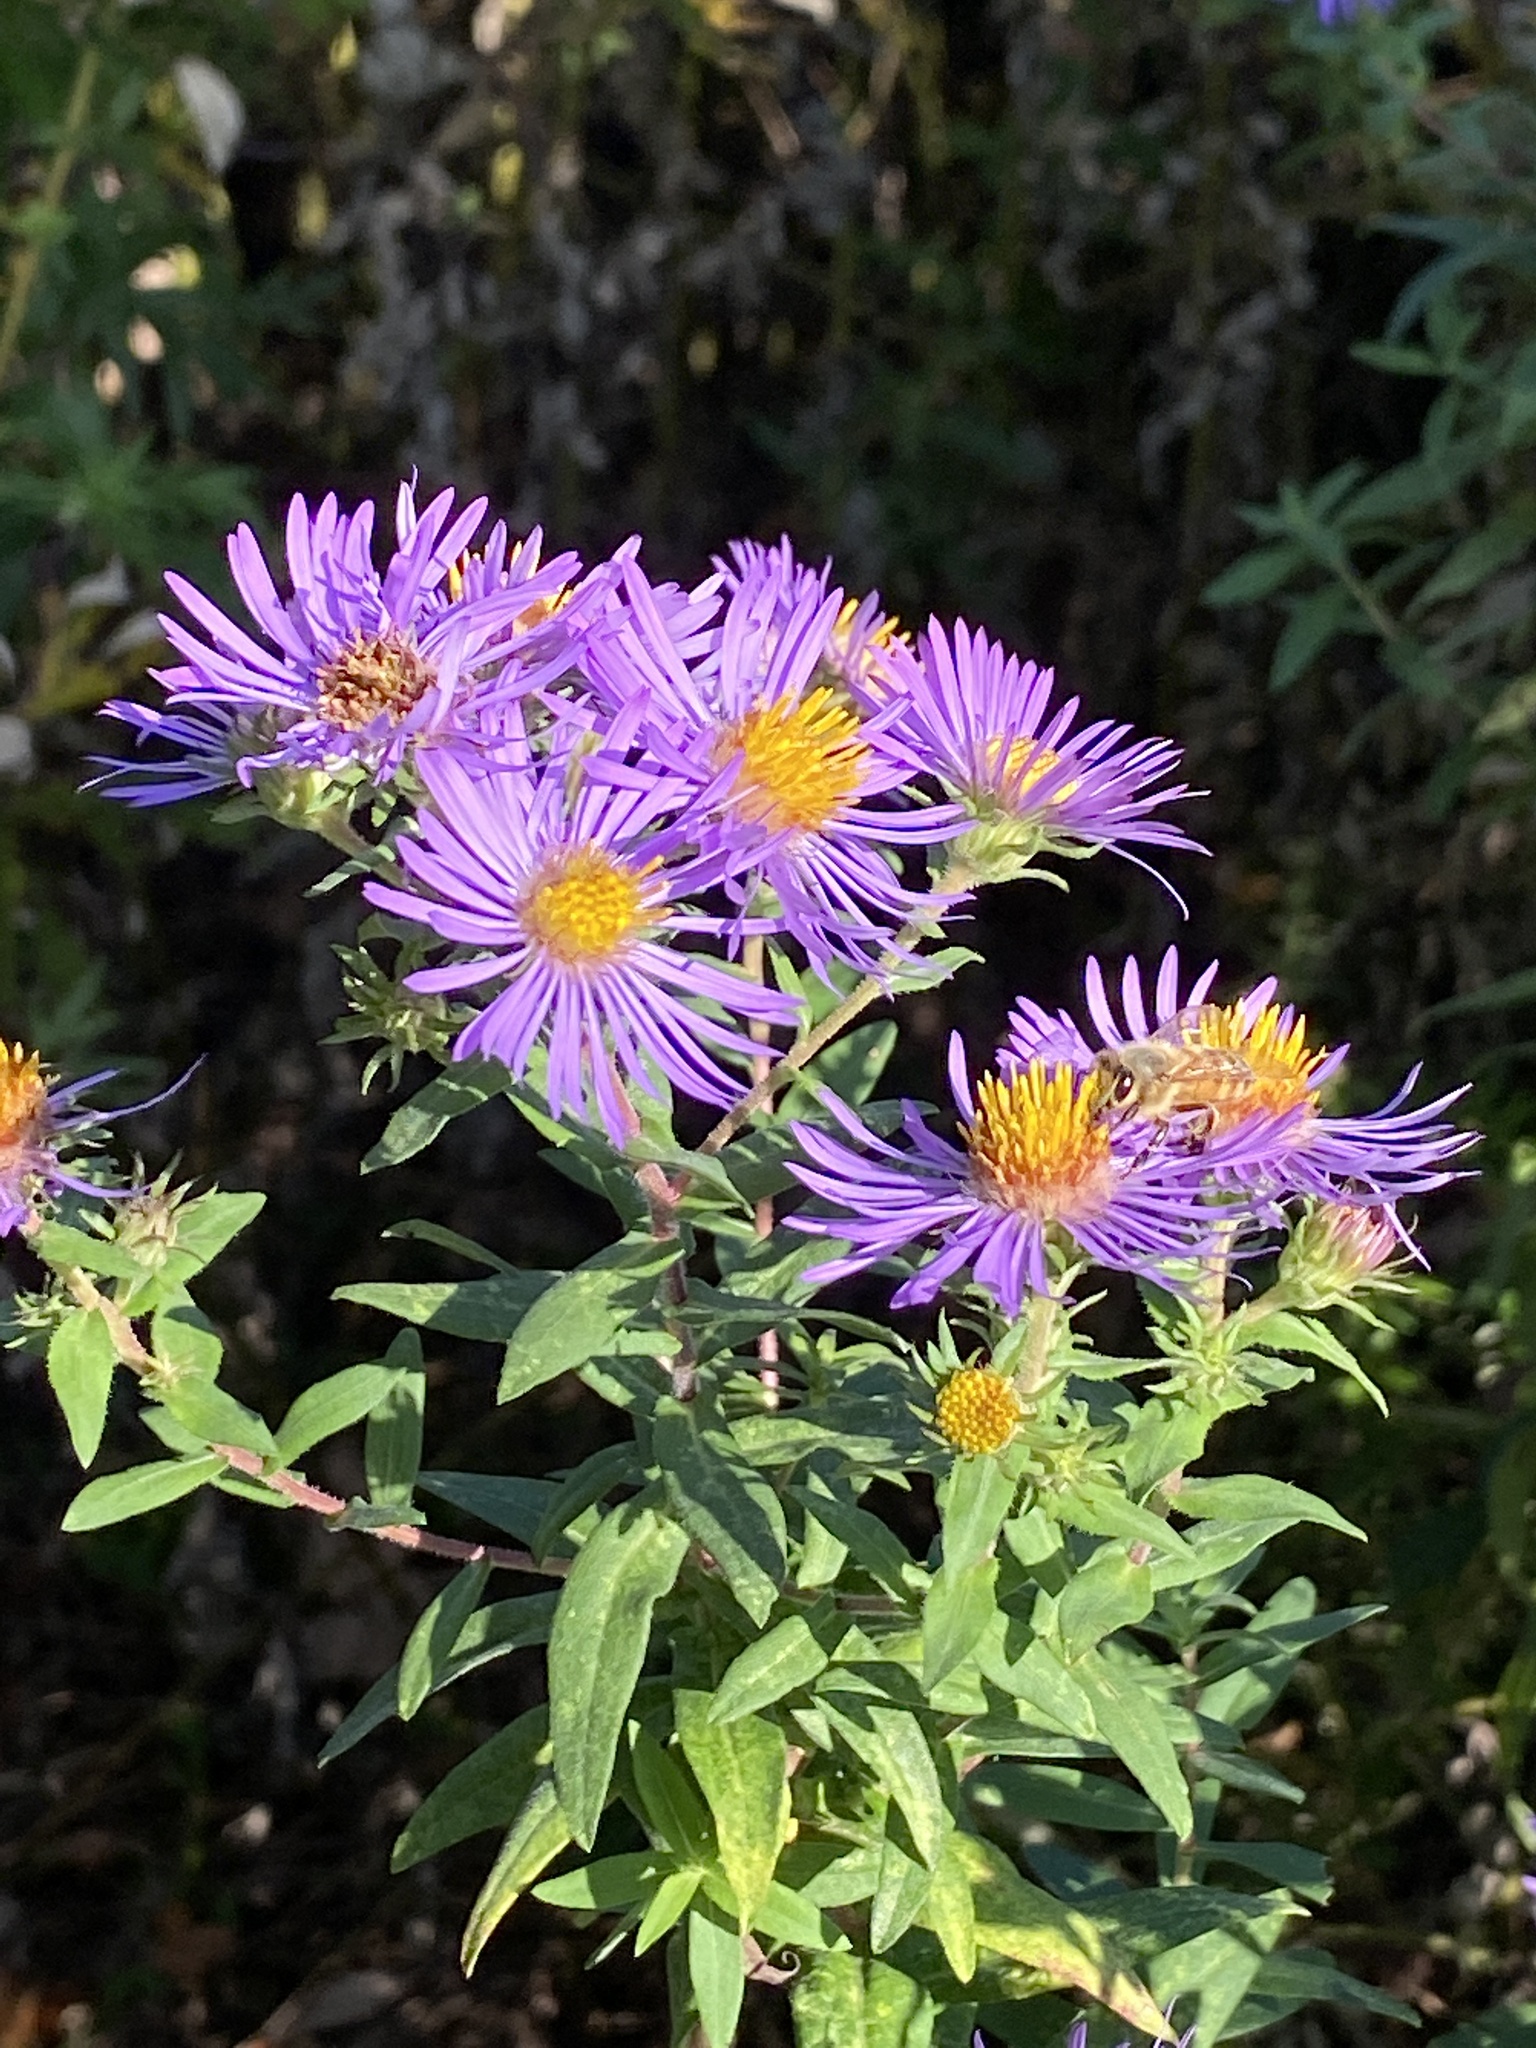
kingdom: Plantae
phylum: Tracheophyta
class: Magnoliopsida
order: Asterales
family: Asteraceae
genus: Symphyotrichum
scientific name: Symphyotrichum novae-angliae
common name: Michaelmas daisy
